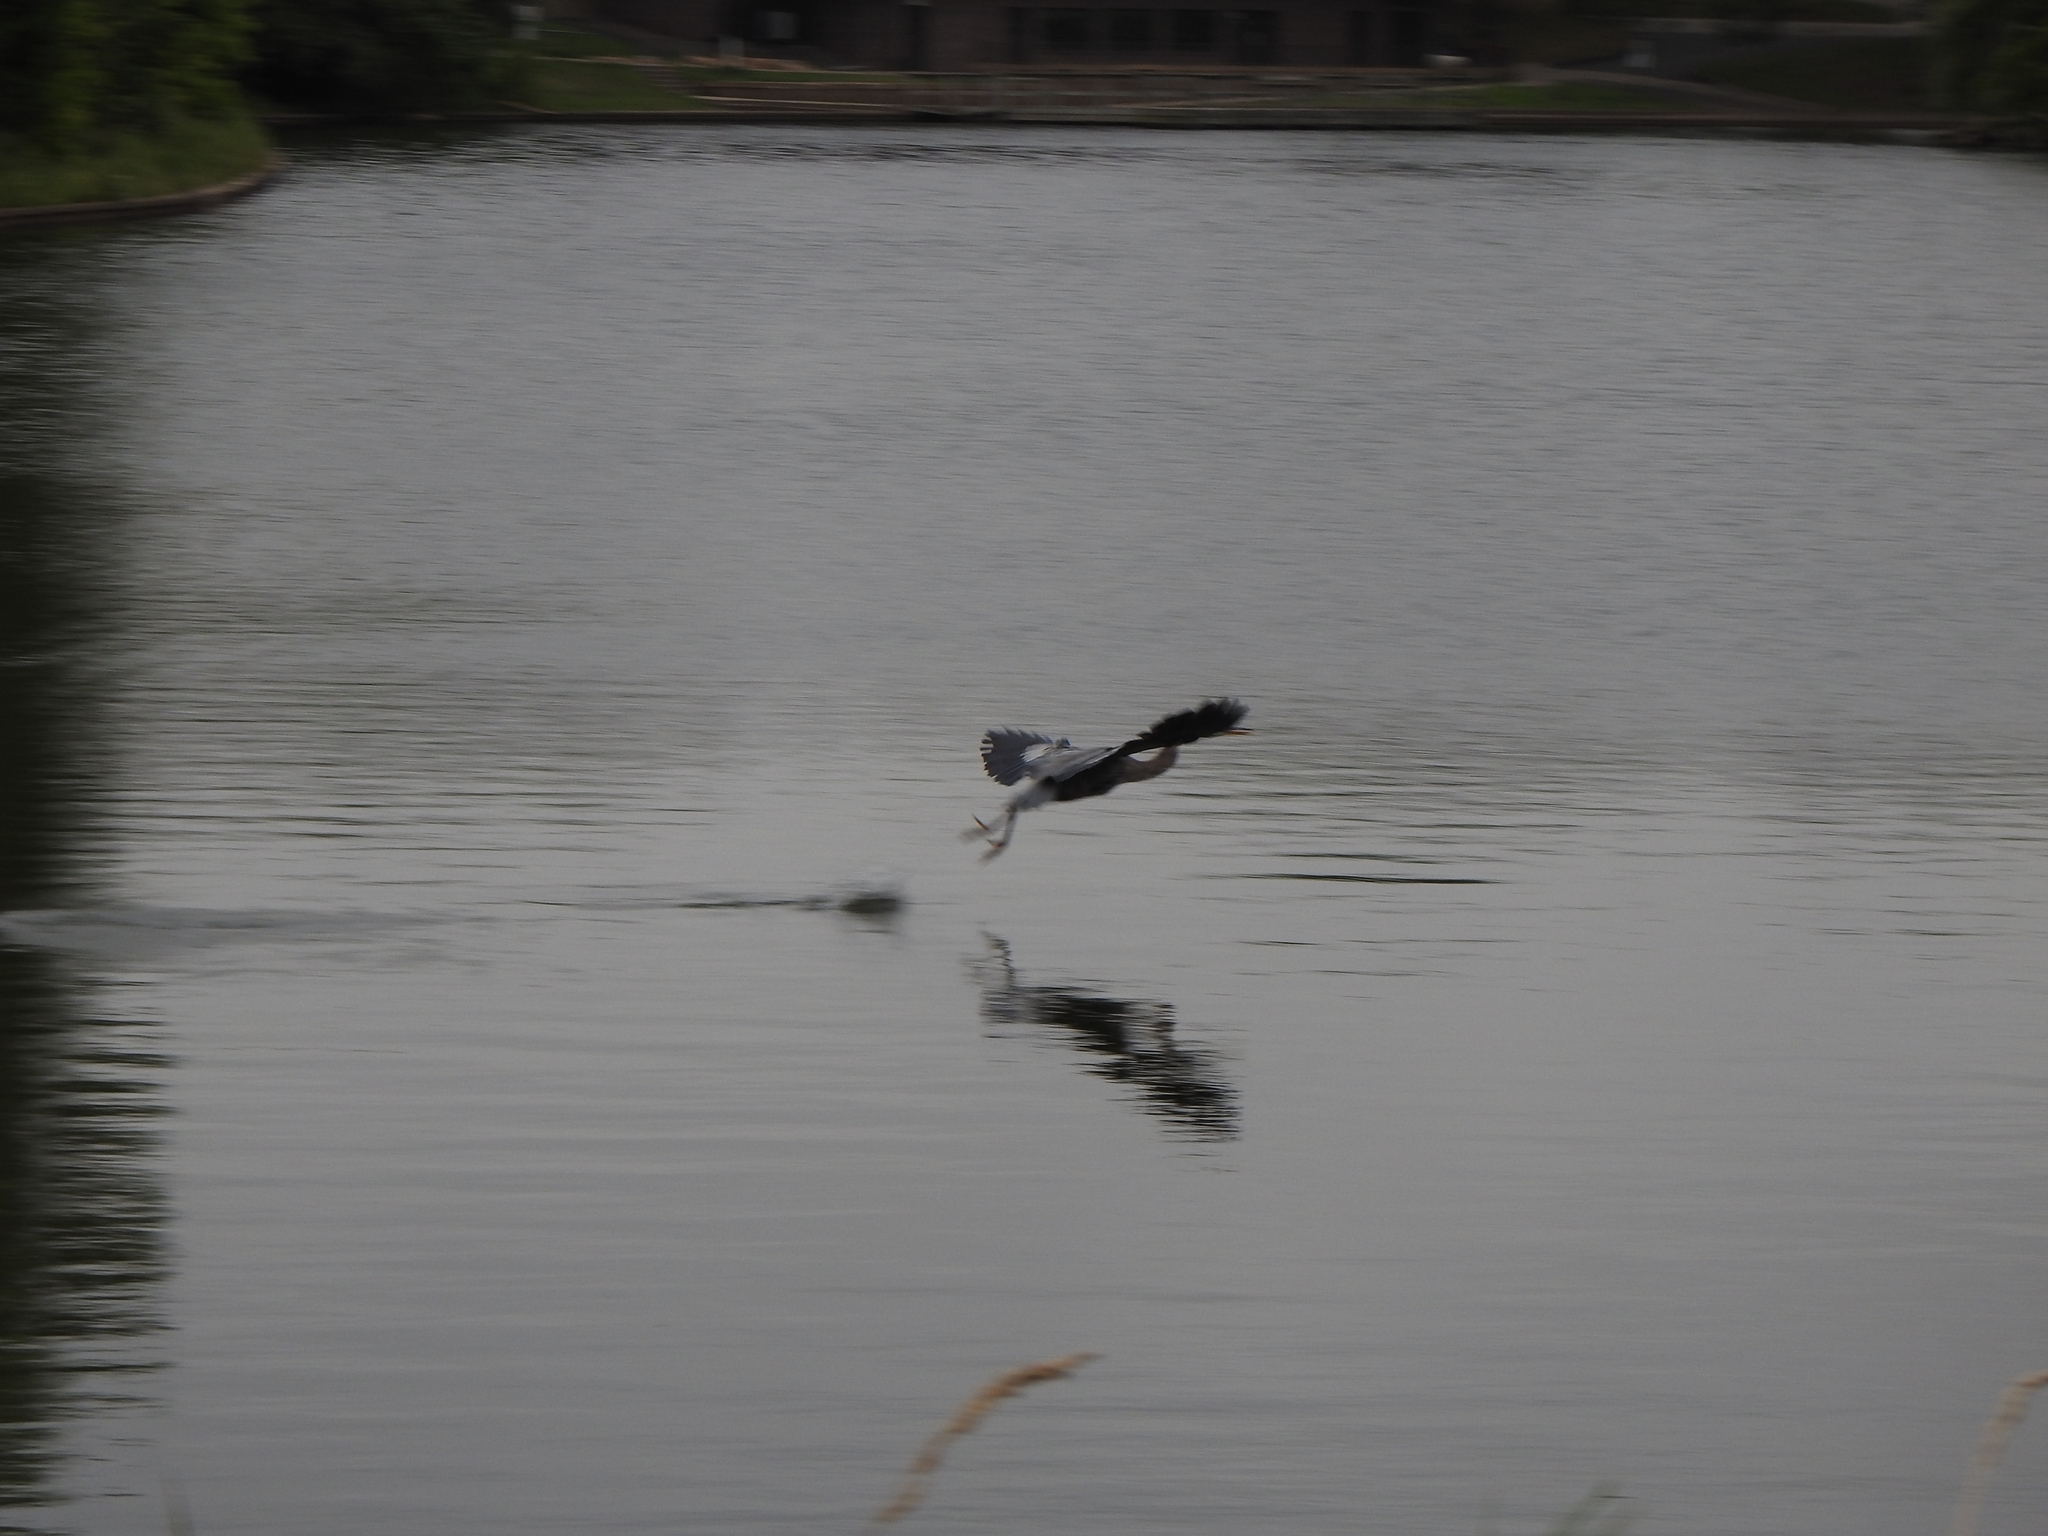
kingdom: Animalia
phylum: Chordata
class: Aves
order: Pelecaniformes
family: Ardeidae
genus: Ardea
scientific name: Ardea herodias
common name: Great blue heron
